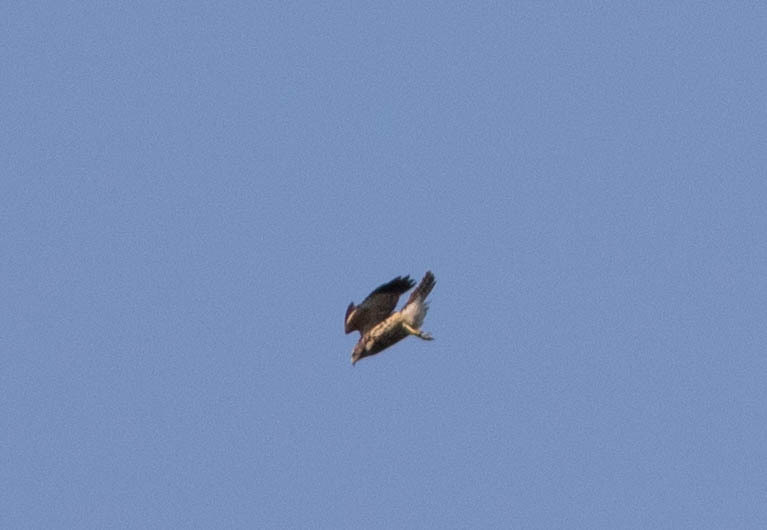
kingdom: Animalia
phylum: Chordata
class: Aves
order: Accipitriformes
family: Accipitridae
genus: Buteo
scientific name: Buteo lineatus
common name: Red-shouldered hawk
